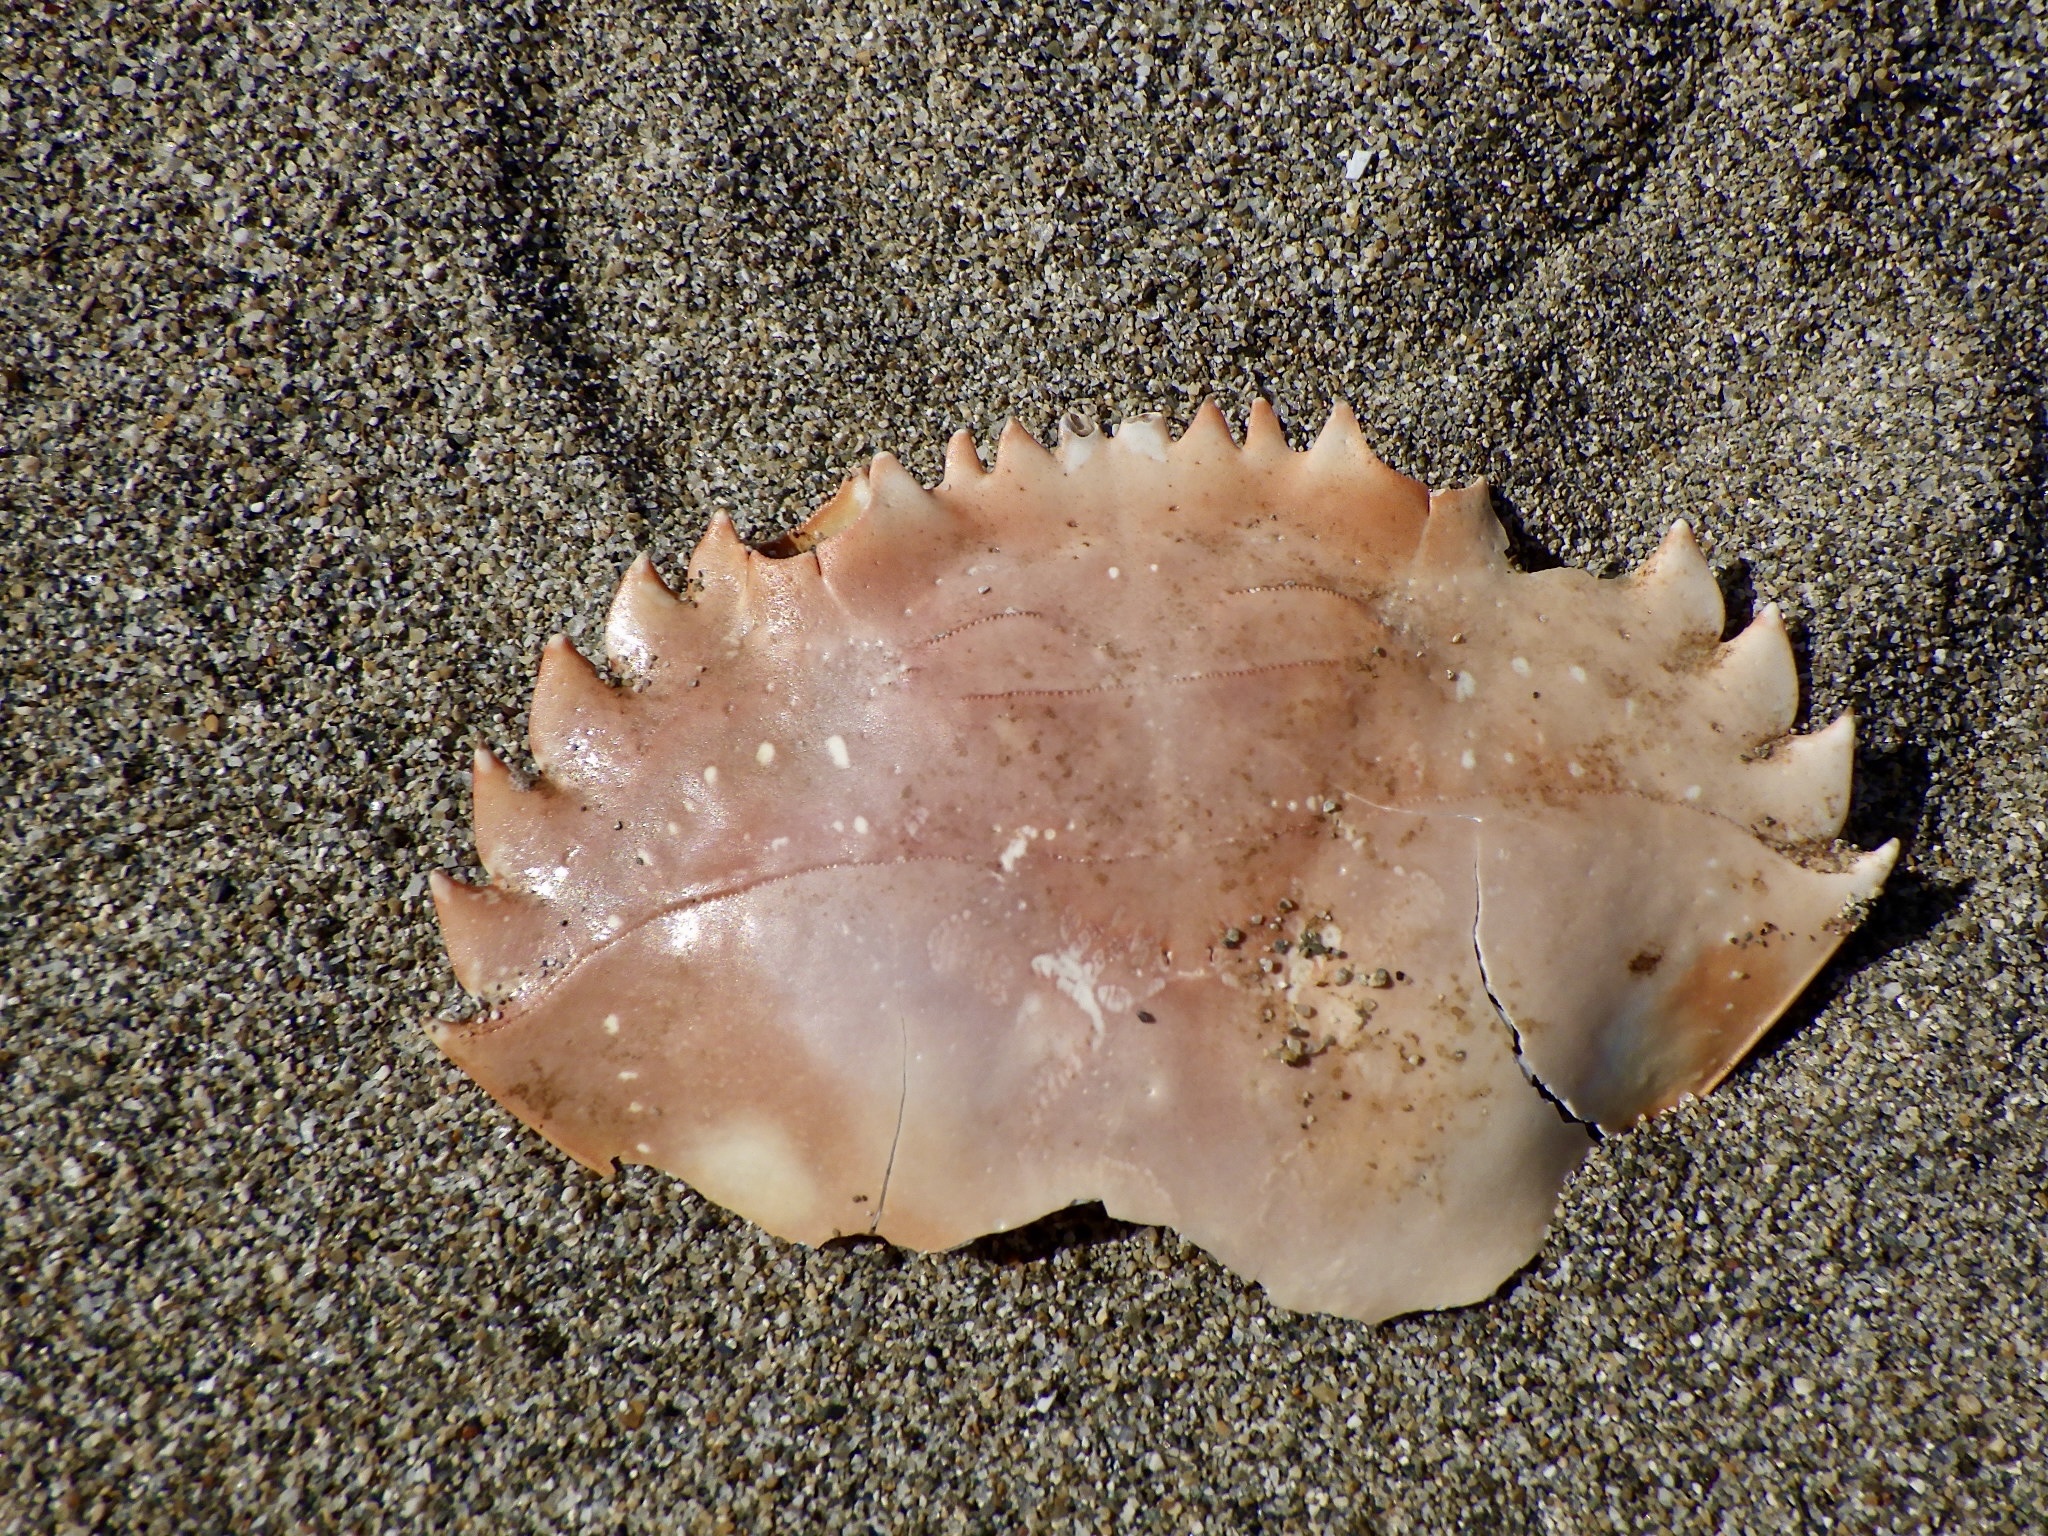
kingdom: Animalia
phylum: Arthropoda
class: Malacostraca
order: Decapoda
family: Portunidae
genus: Charybdis
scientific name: Charybdis japonica
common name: Asian paddle crab
